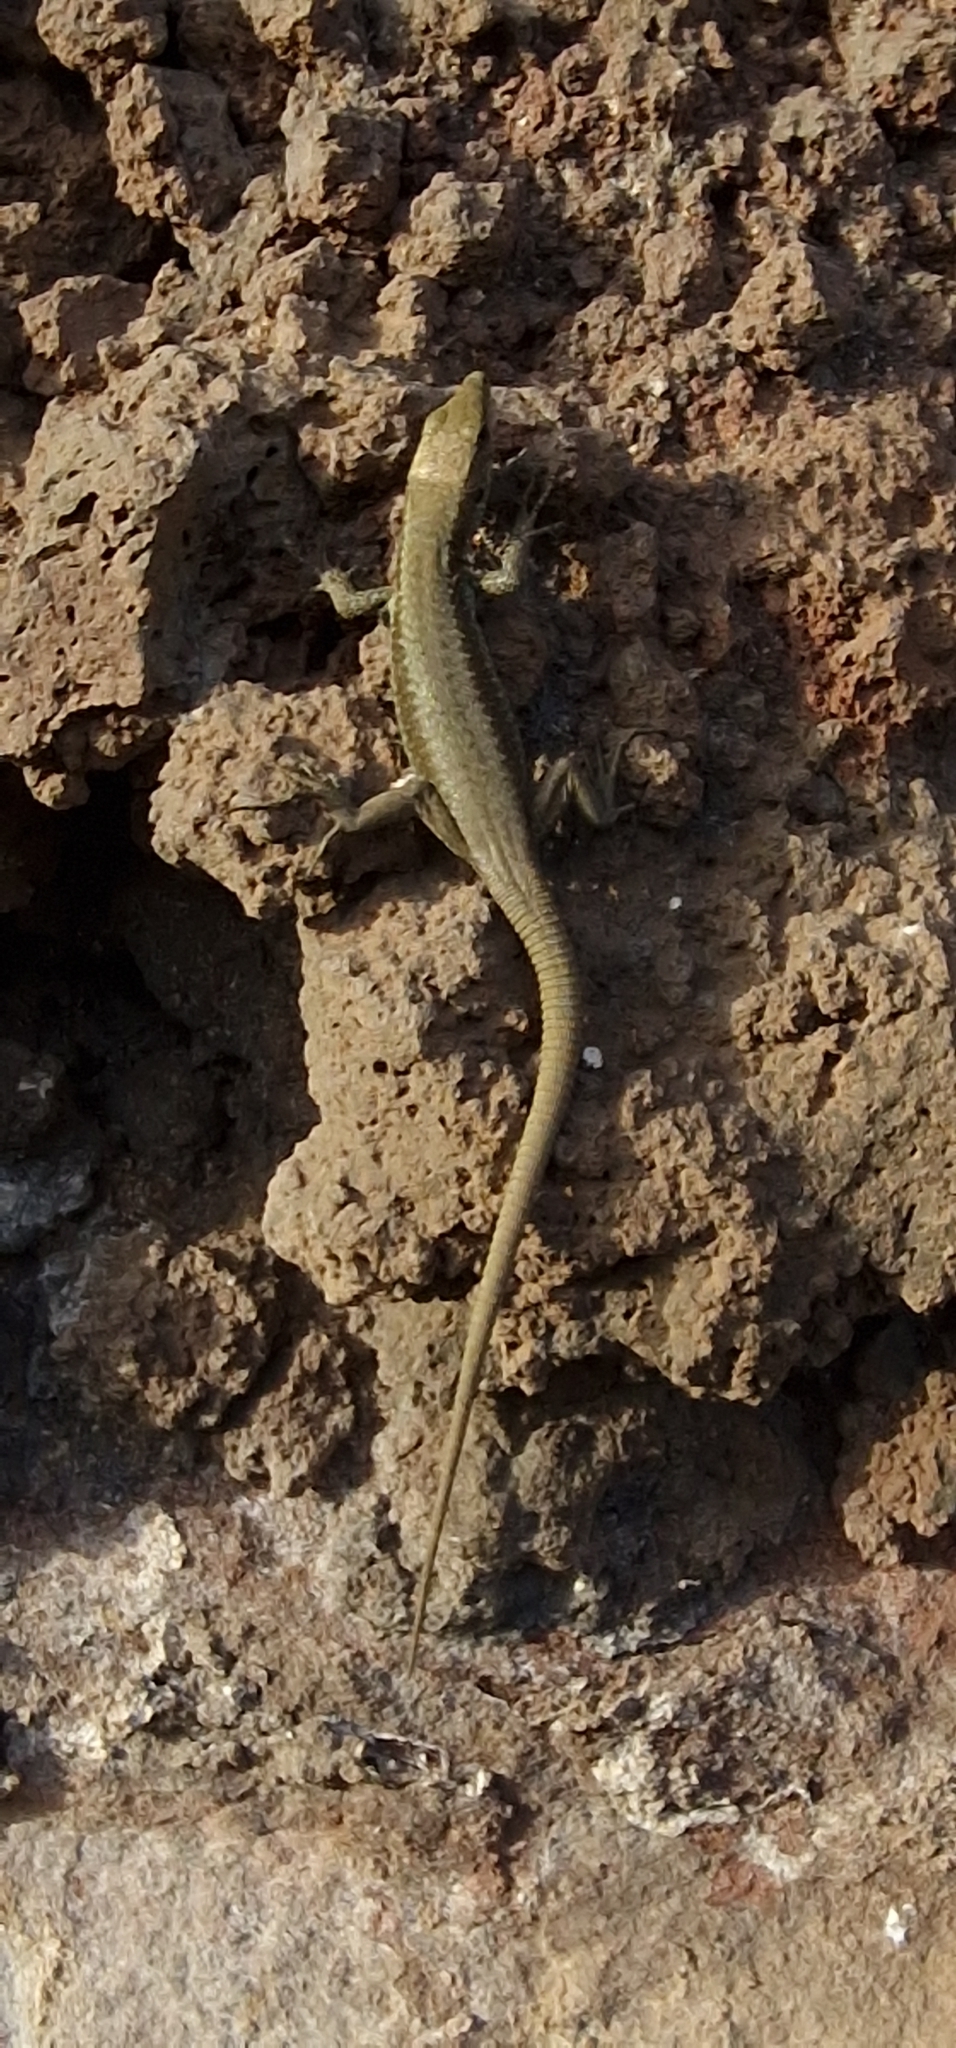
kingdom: Animalia
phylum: Chordata
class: Squamata
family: Lacertidae
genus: Teira
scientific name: Teira dugesii
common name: Madeira lizard
